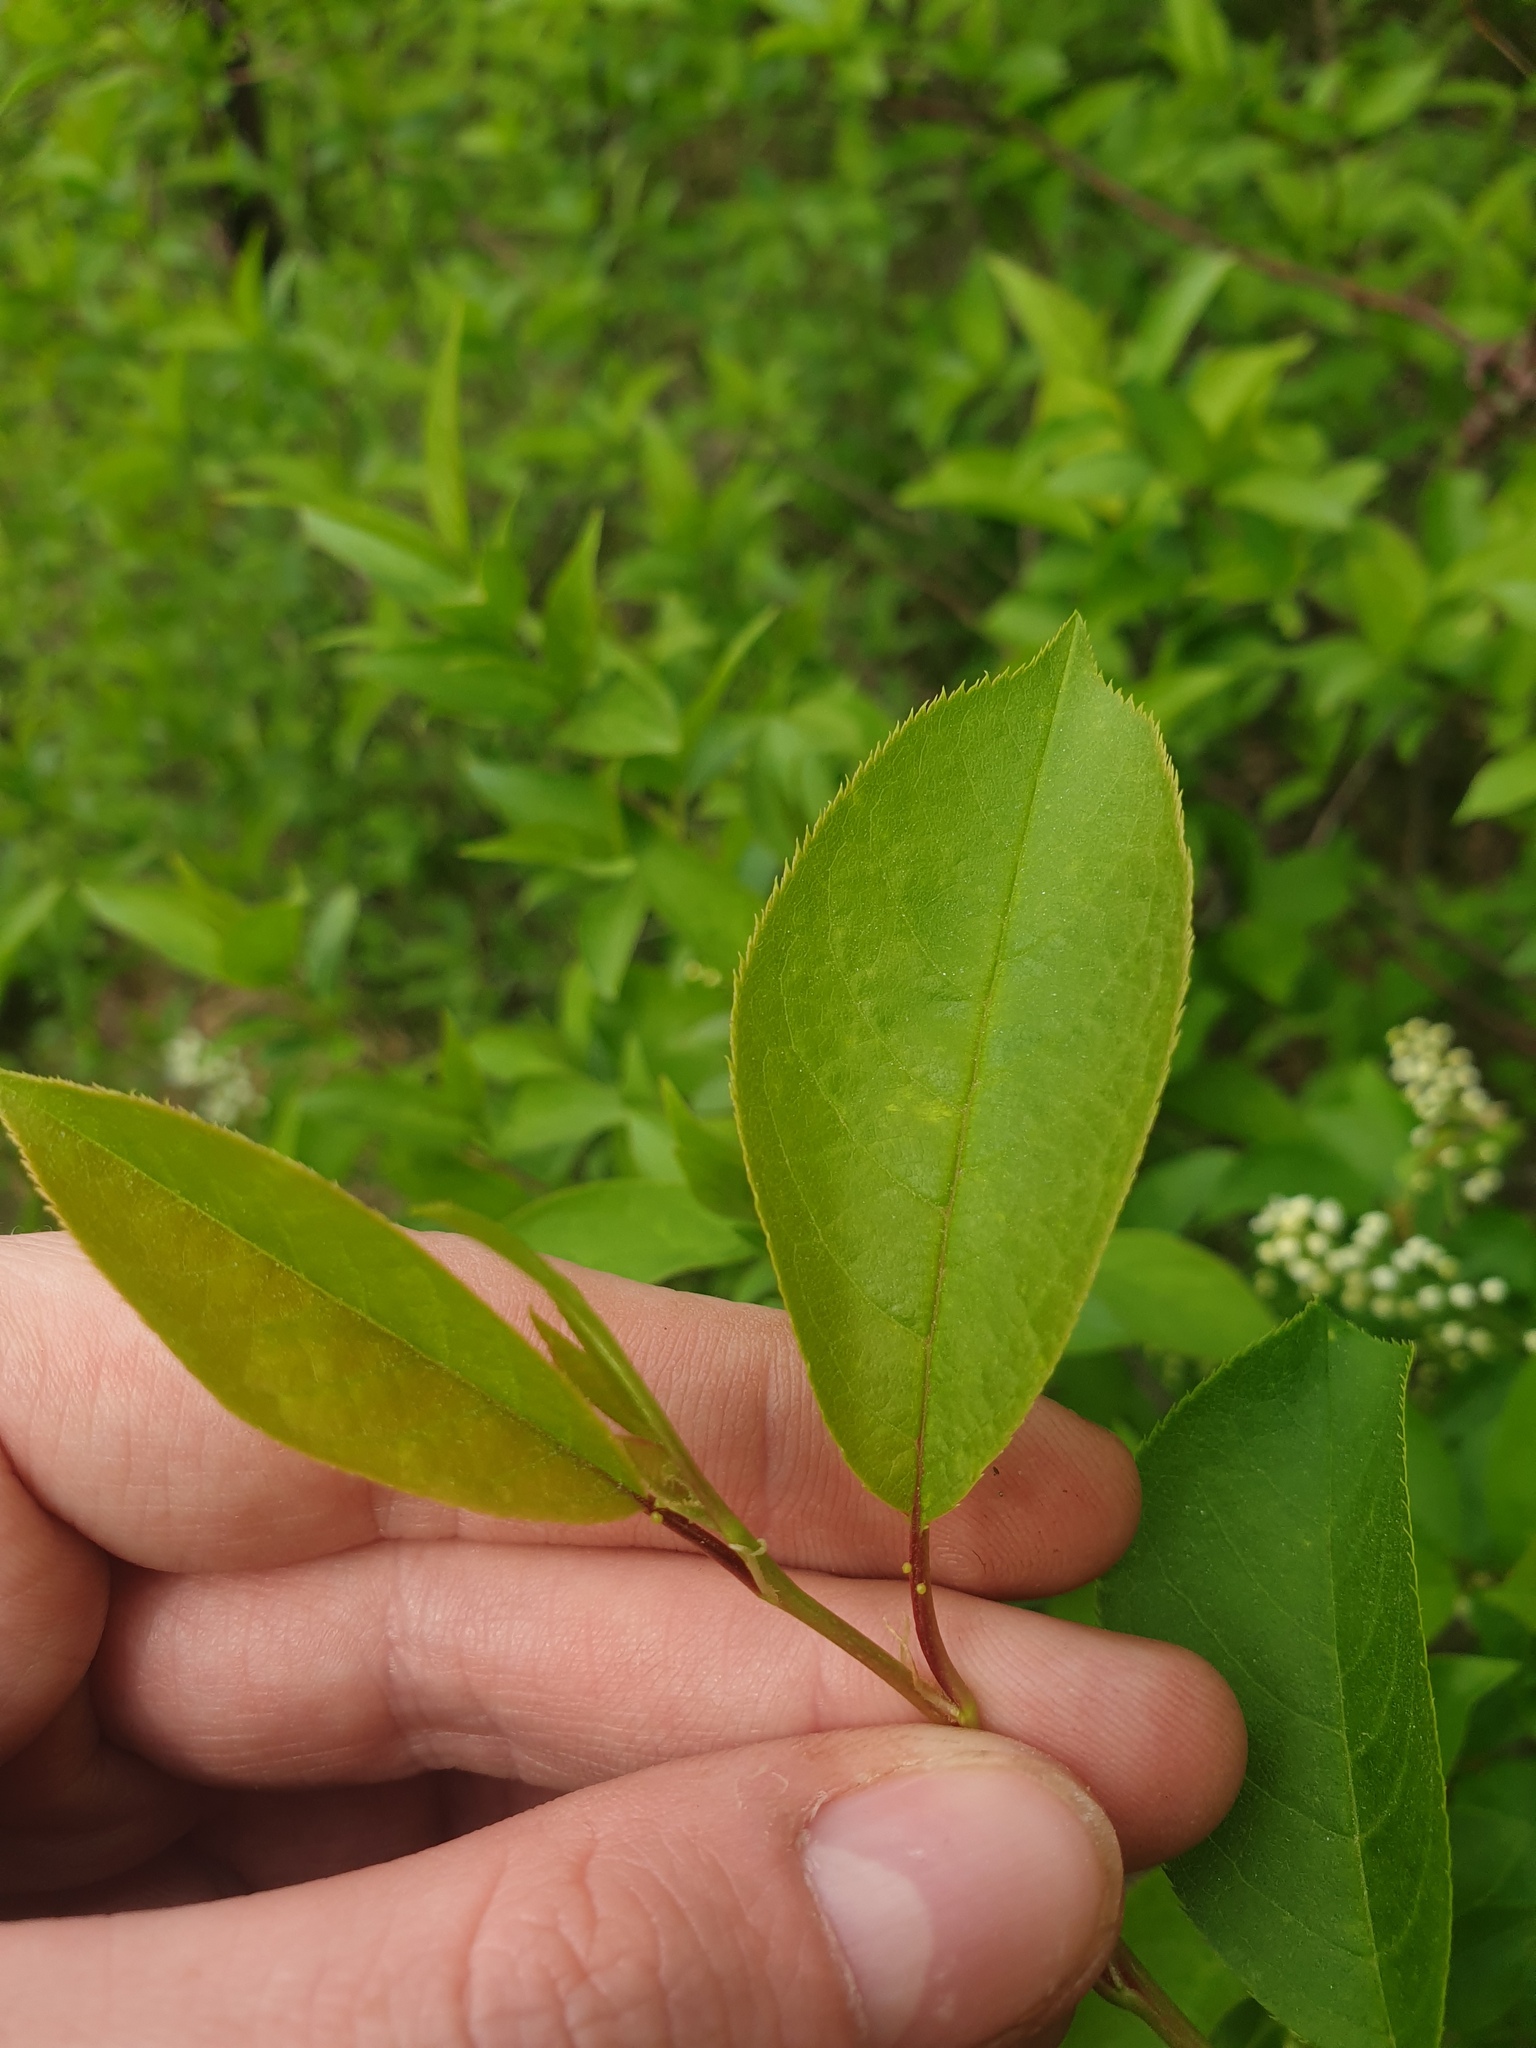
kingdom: Plantae
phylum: Tracheophyta
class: Magnoliopsida
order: Rosales
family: Rosaceae
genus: Prunus
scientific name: Prunus virginiana
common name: Chokecherry
